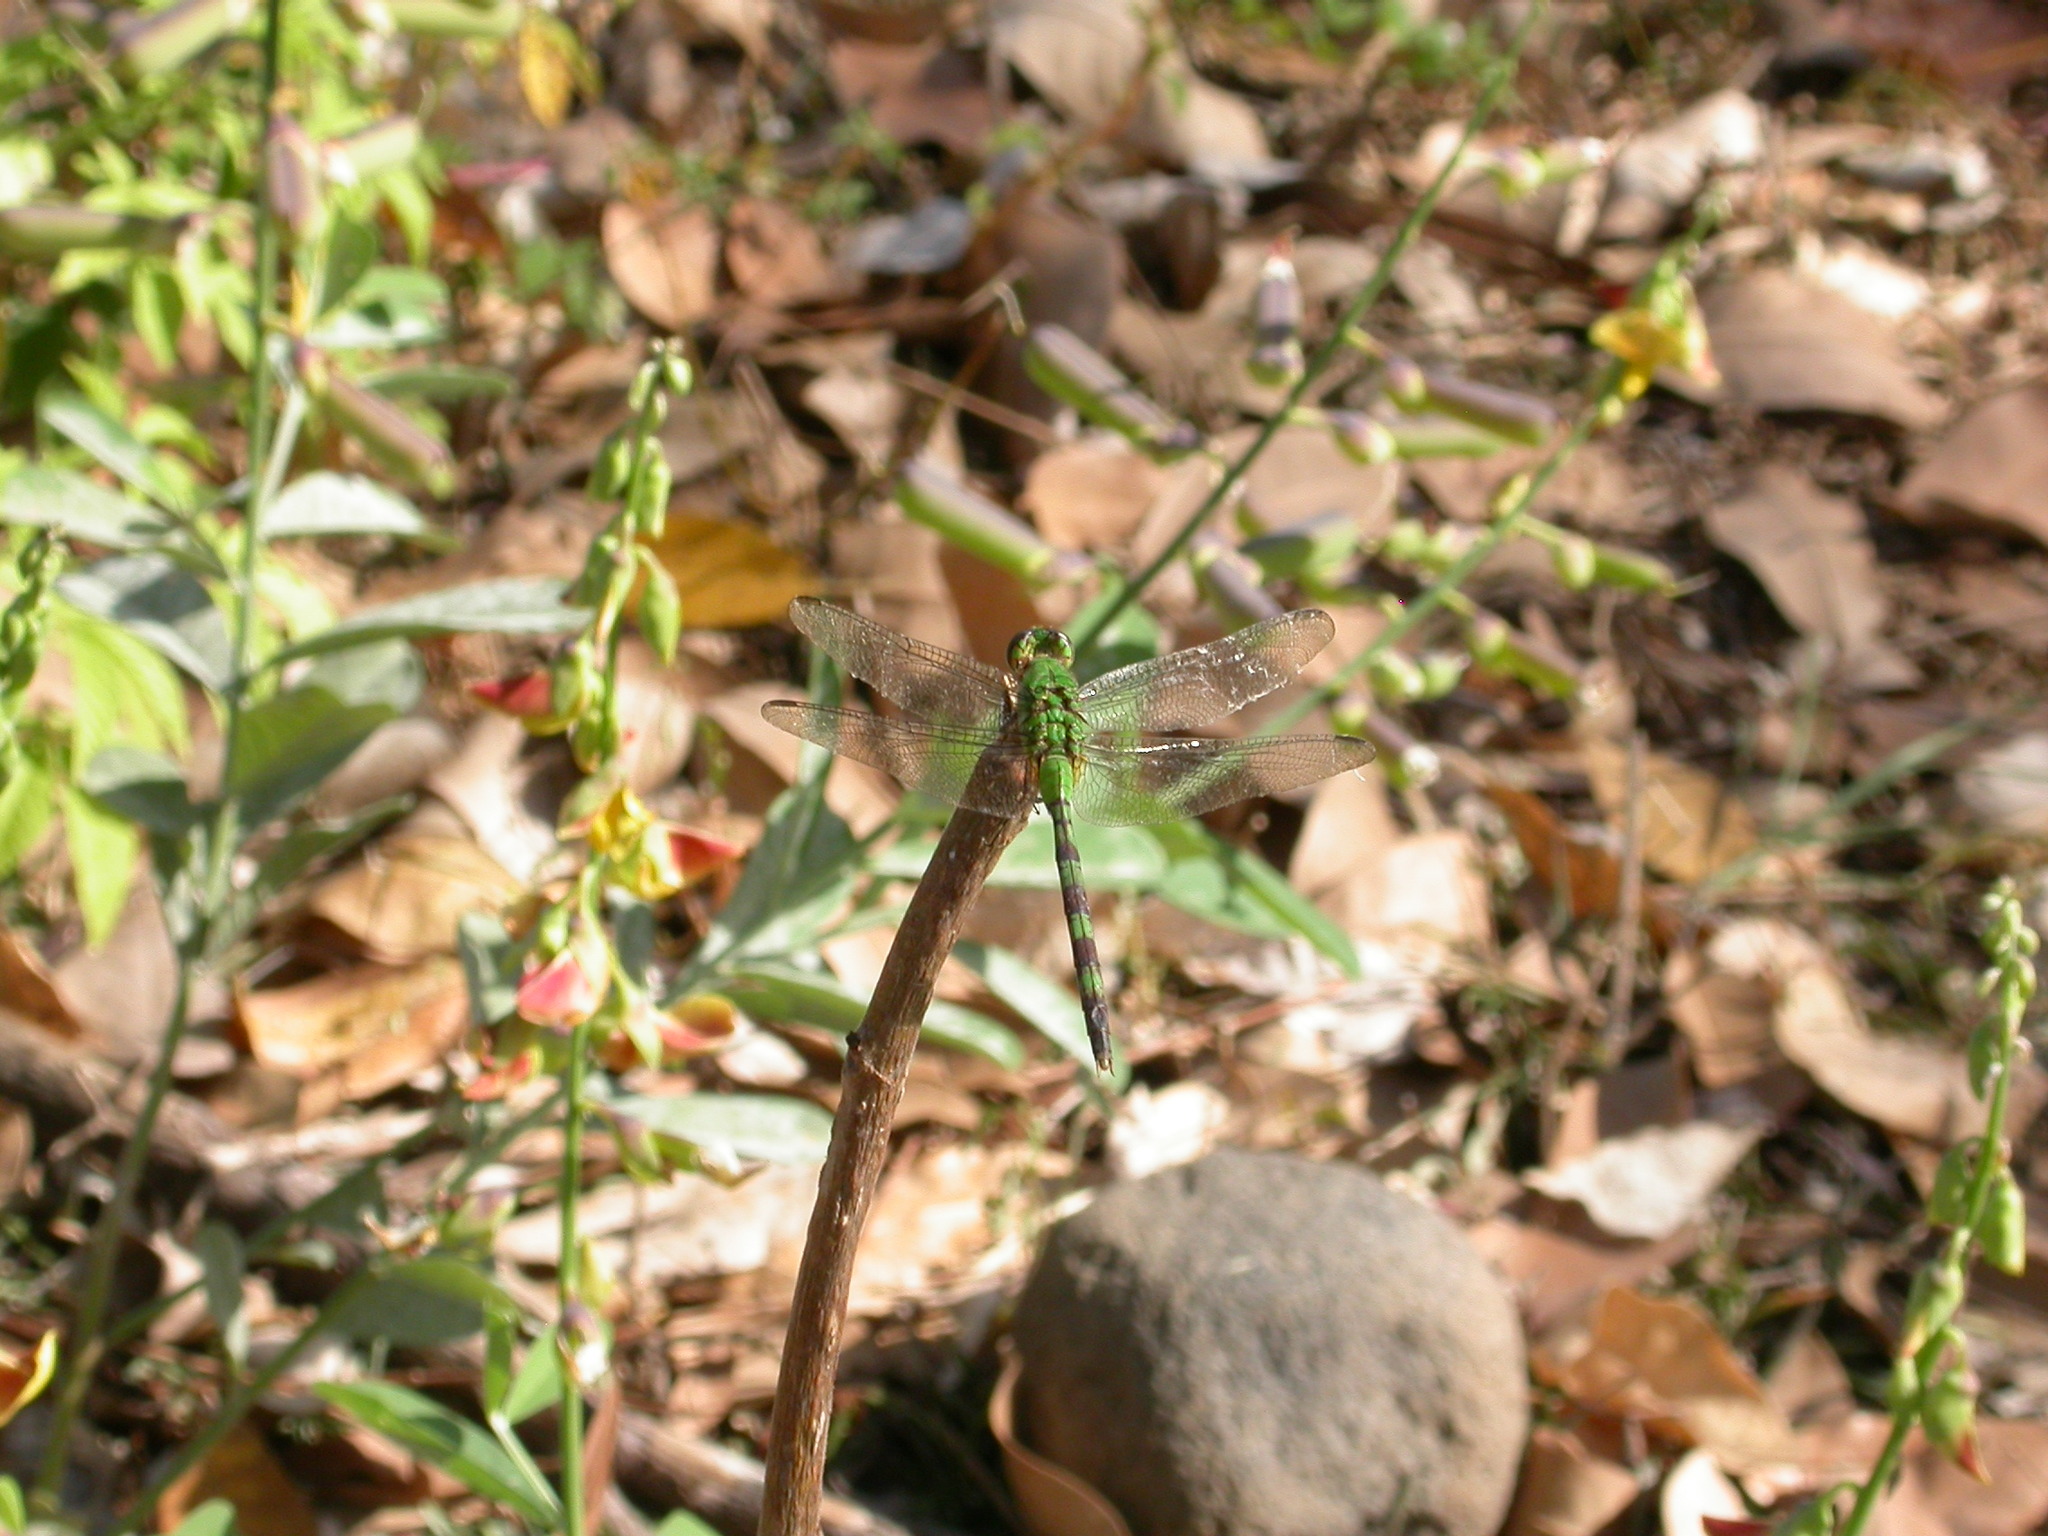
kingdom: Animalia
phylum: Arthropoda
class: Insecta
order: Odonata
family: Libellulidae
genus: Erythemis
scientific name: Erythemis vesiculosa
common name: Great pondhawk
